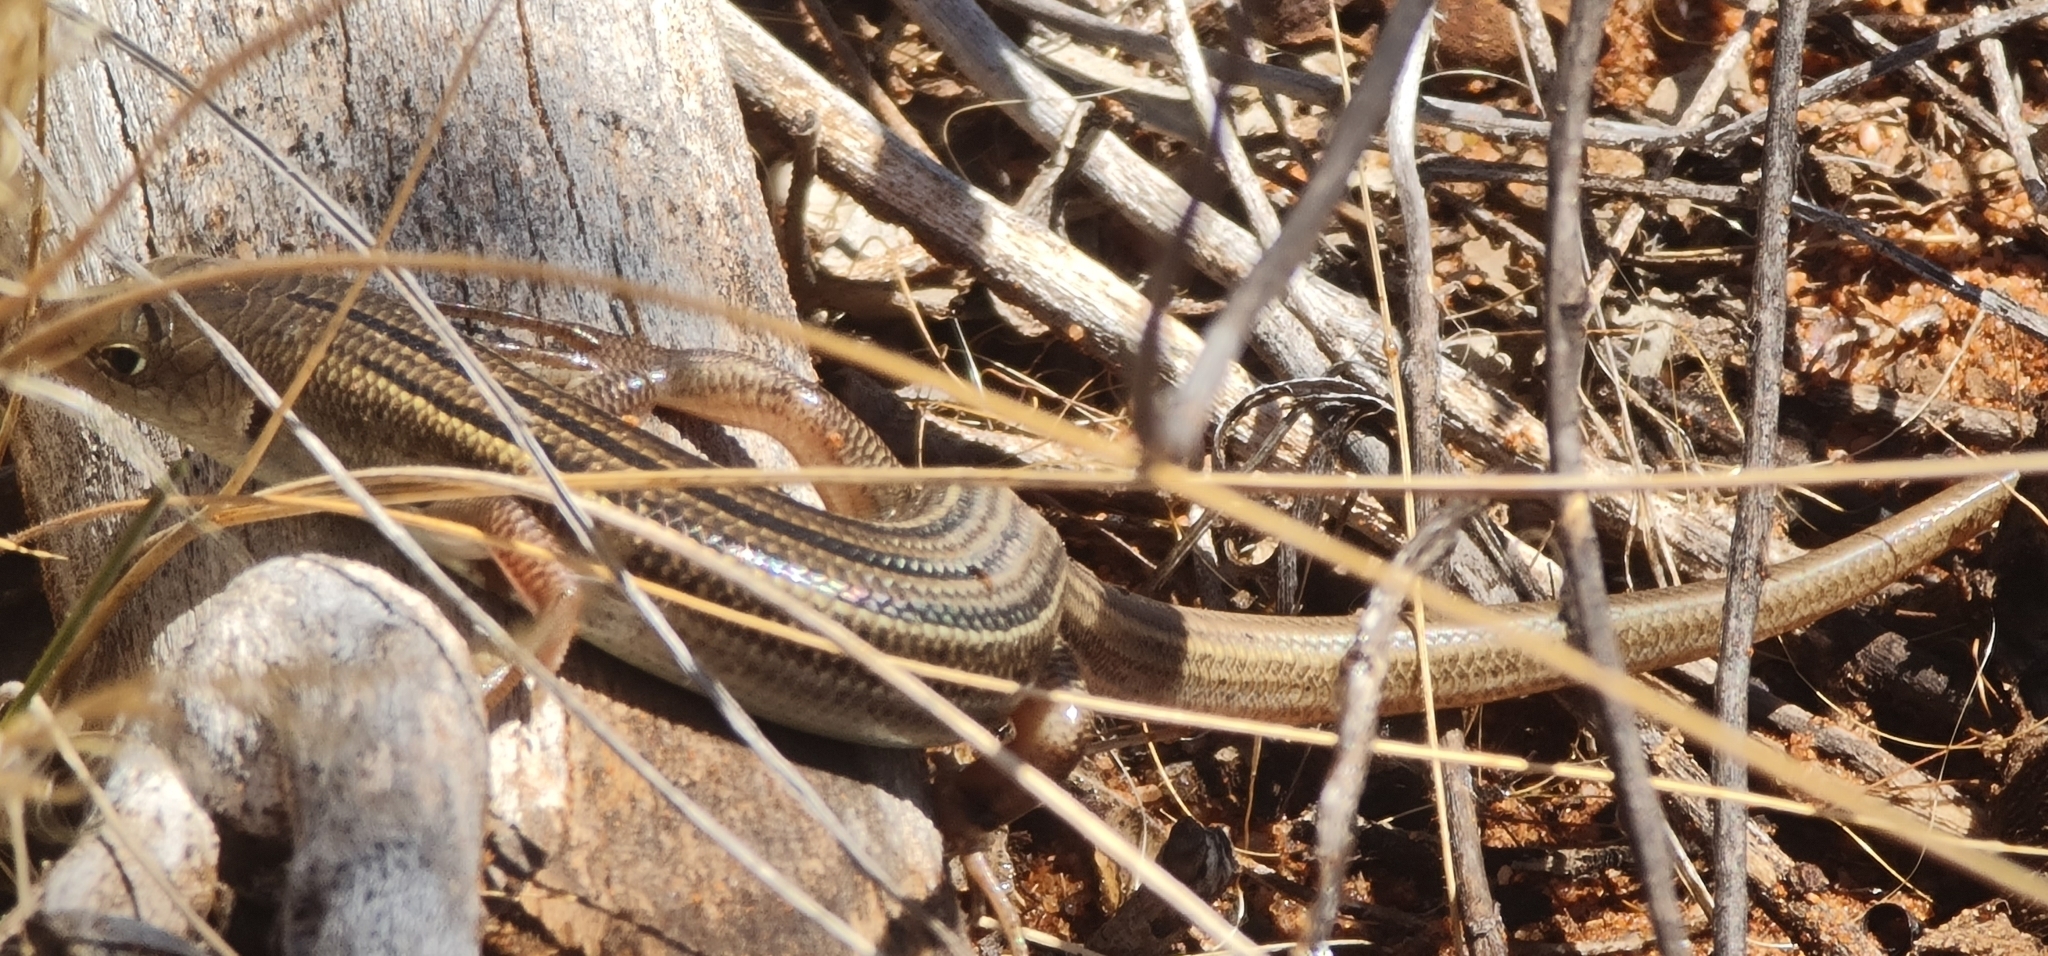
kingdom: Animalia
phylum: Chordata
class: Squamata
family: Scincidae
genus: Ctenotus
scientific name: Ctenotus inornatus
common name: Bar-shouldered ctenotus
